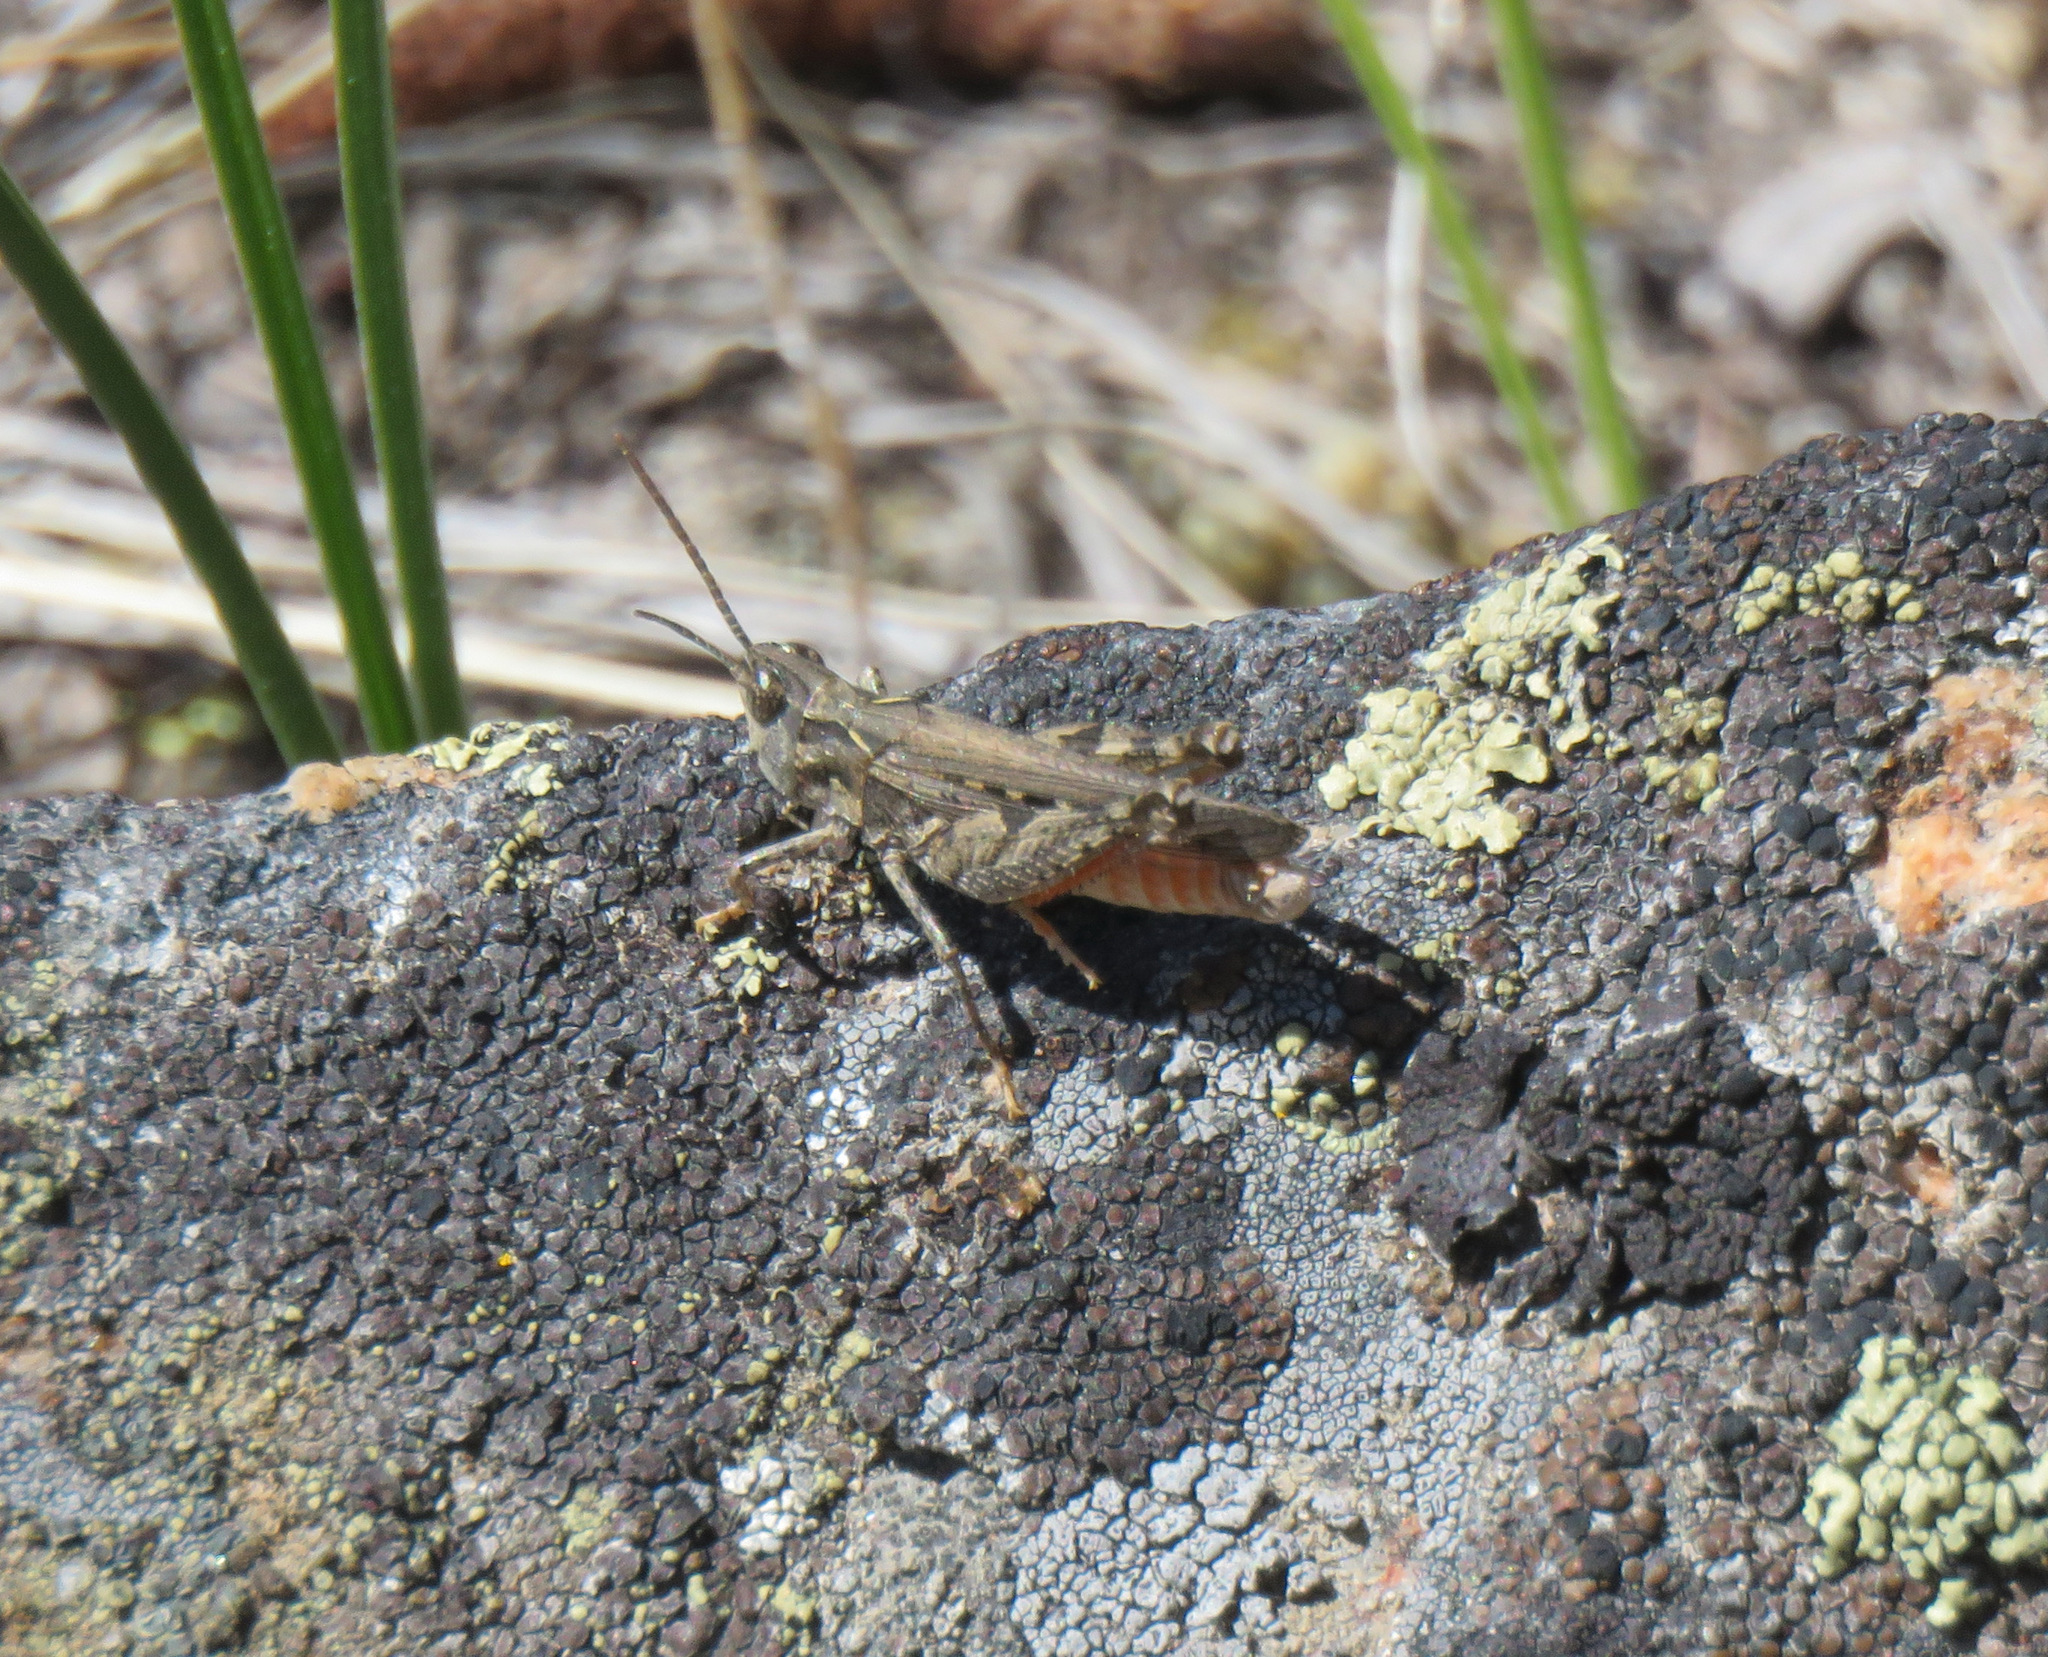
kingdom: Animalia
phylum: Arthropoda
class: Insecta
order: Orthoptera
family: Acrididae
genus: Psoloessa
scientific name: Psoloessa delicatula
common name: Brown-spotted range grasshopper
